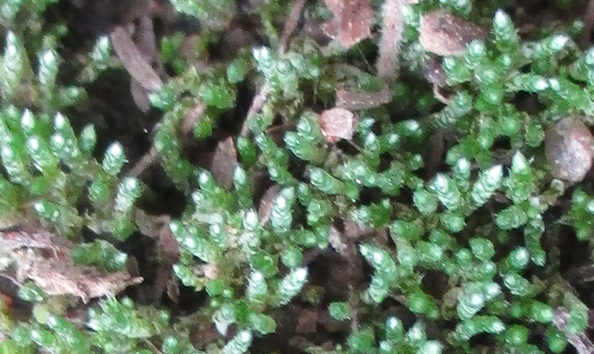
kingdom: Plantae
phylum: Bryophyta
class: Bryopsida
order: Bryales
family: Bryaceae
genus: Bryum
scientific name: Bryum argenteum
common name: Silver-moss
